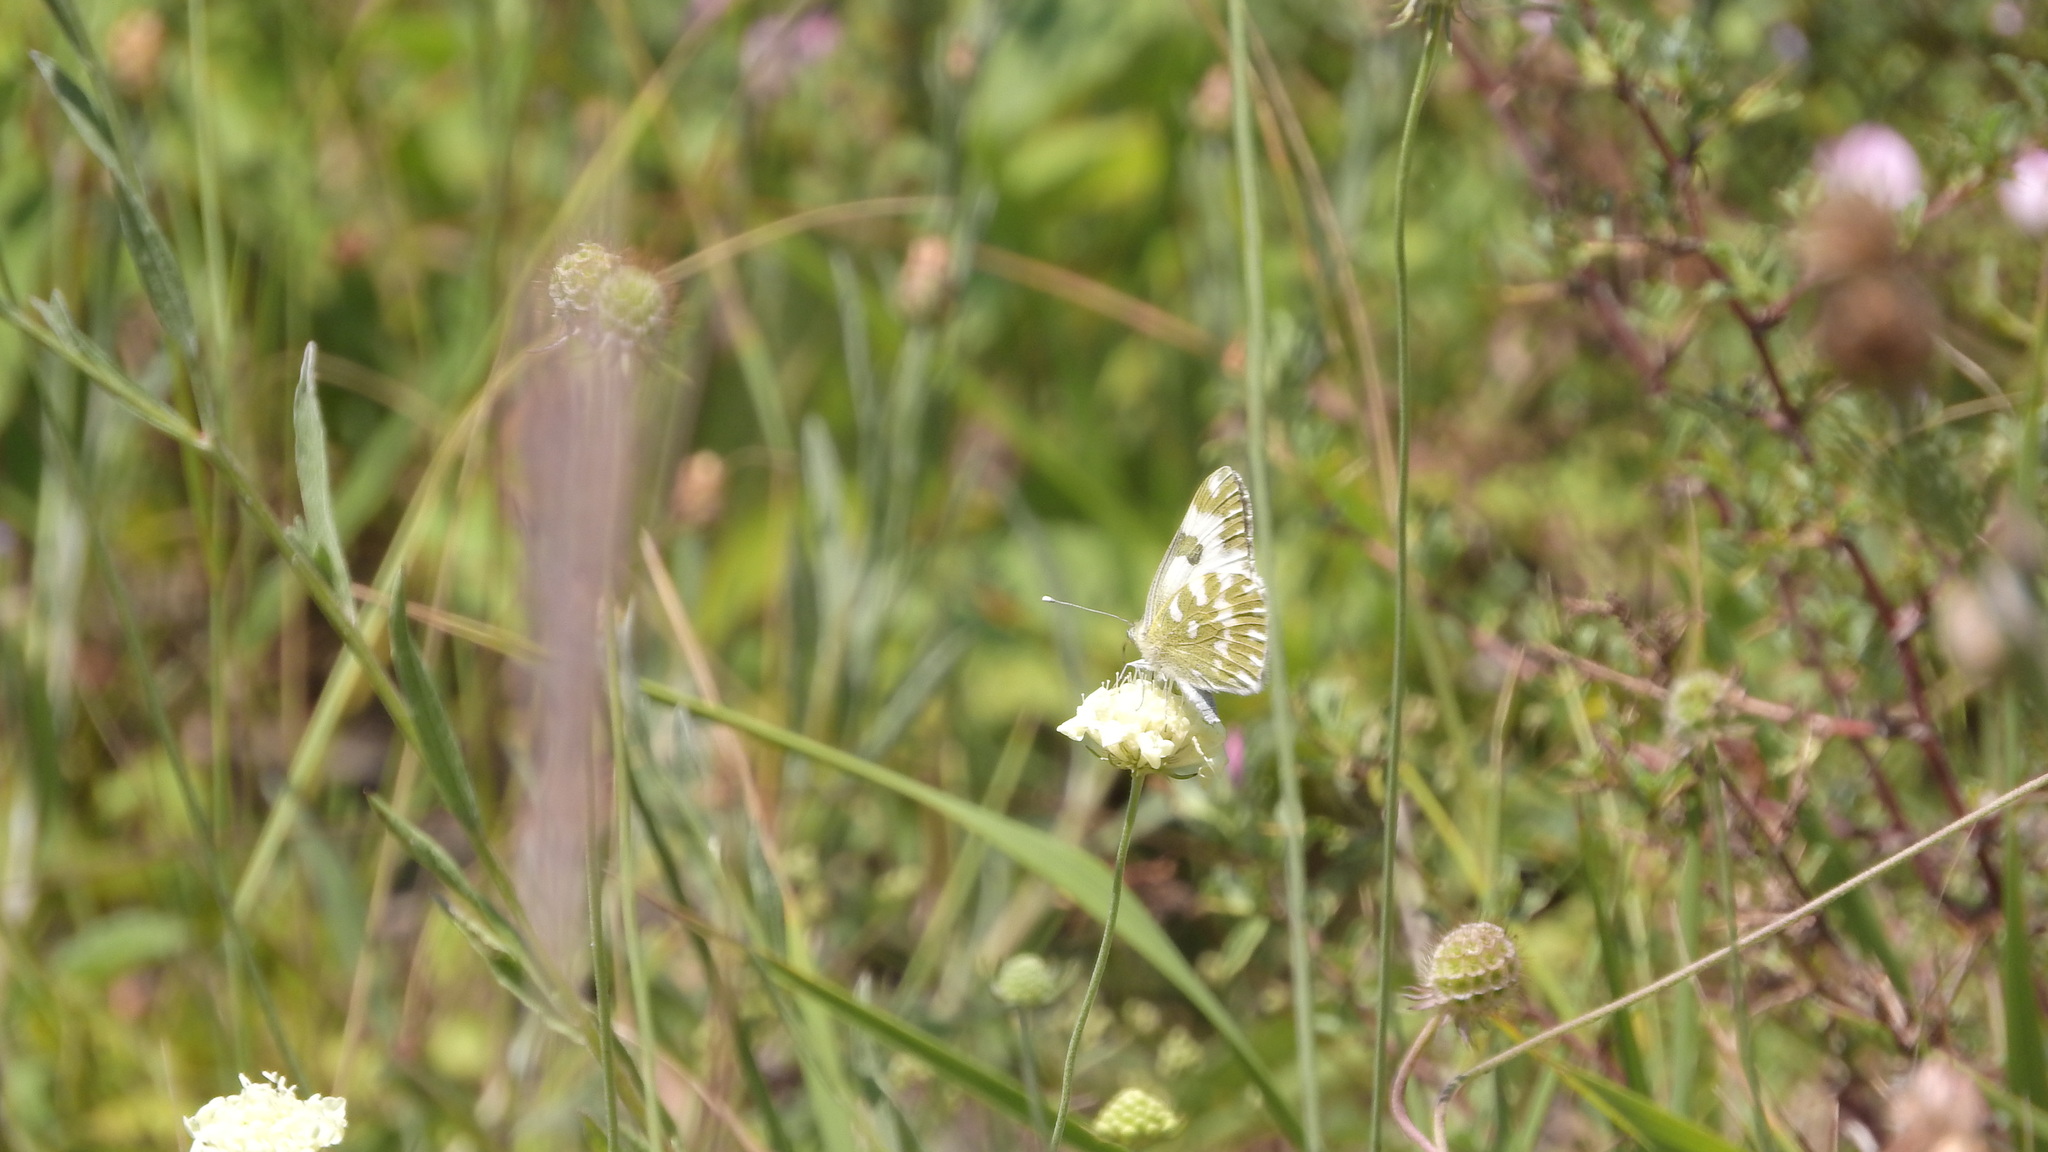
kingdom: Animalia
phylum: Arthropoda
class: Insecta
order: Lepidoptera
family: Pieridae
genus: Pontia
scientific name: Pontia edusa
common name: Eastern bath white
